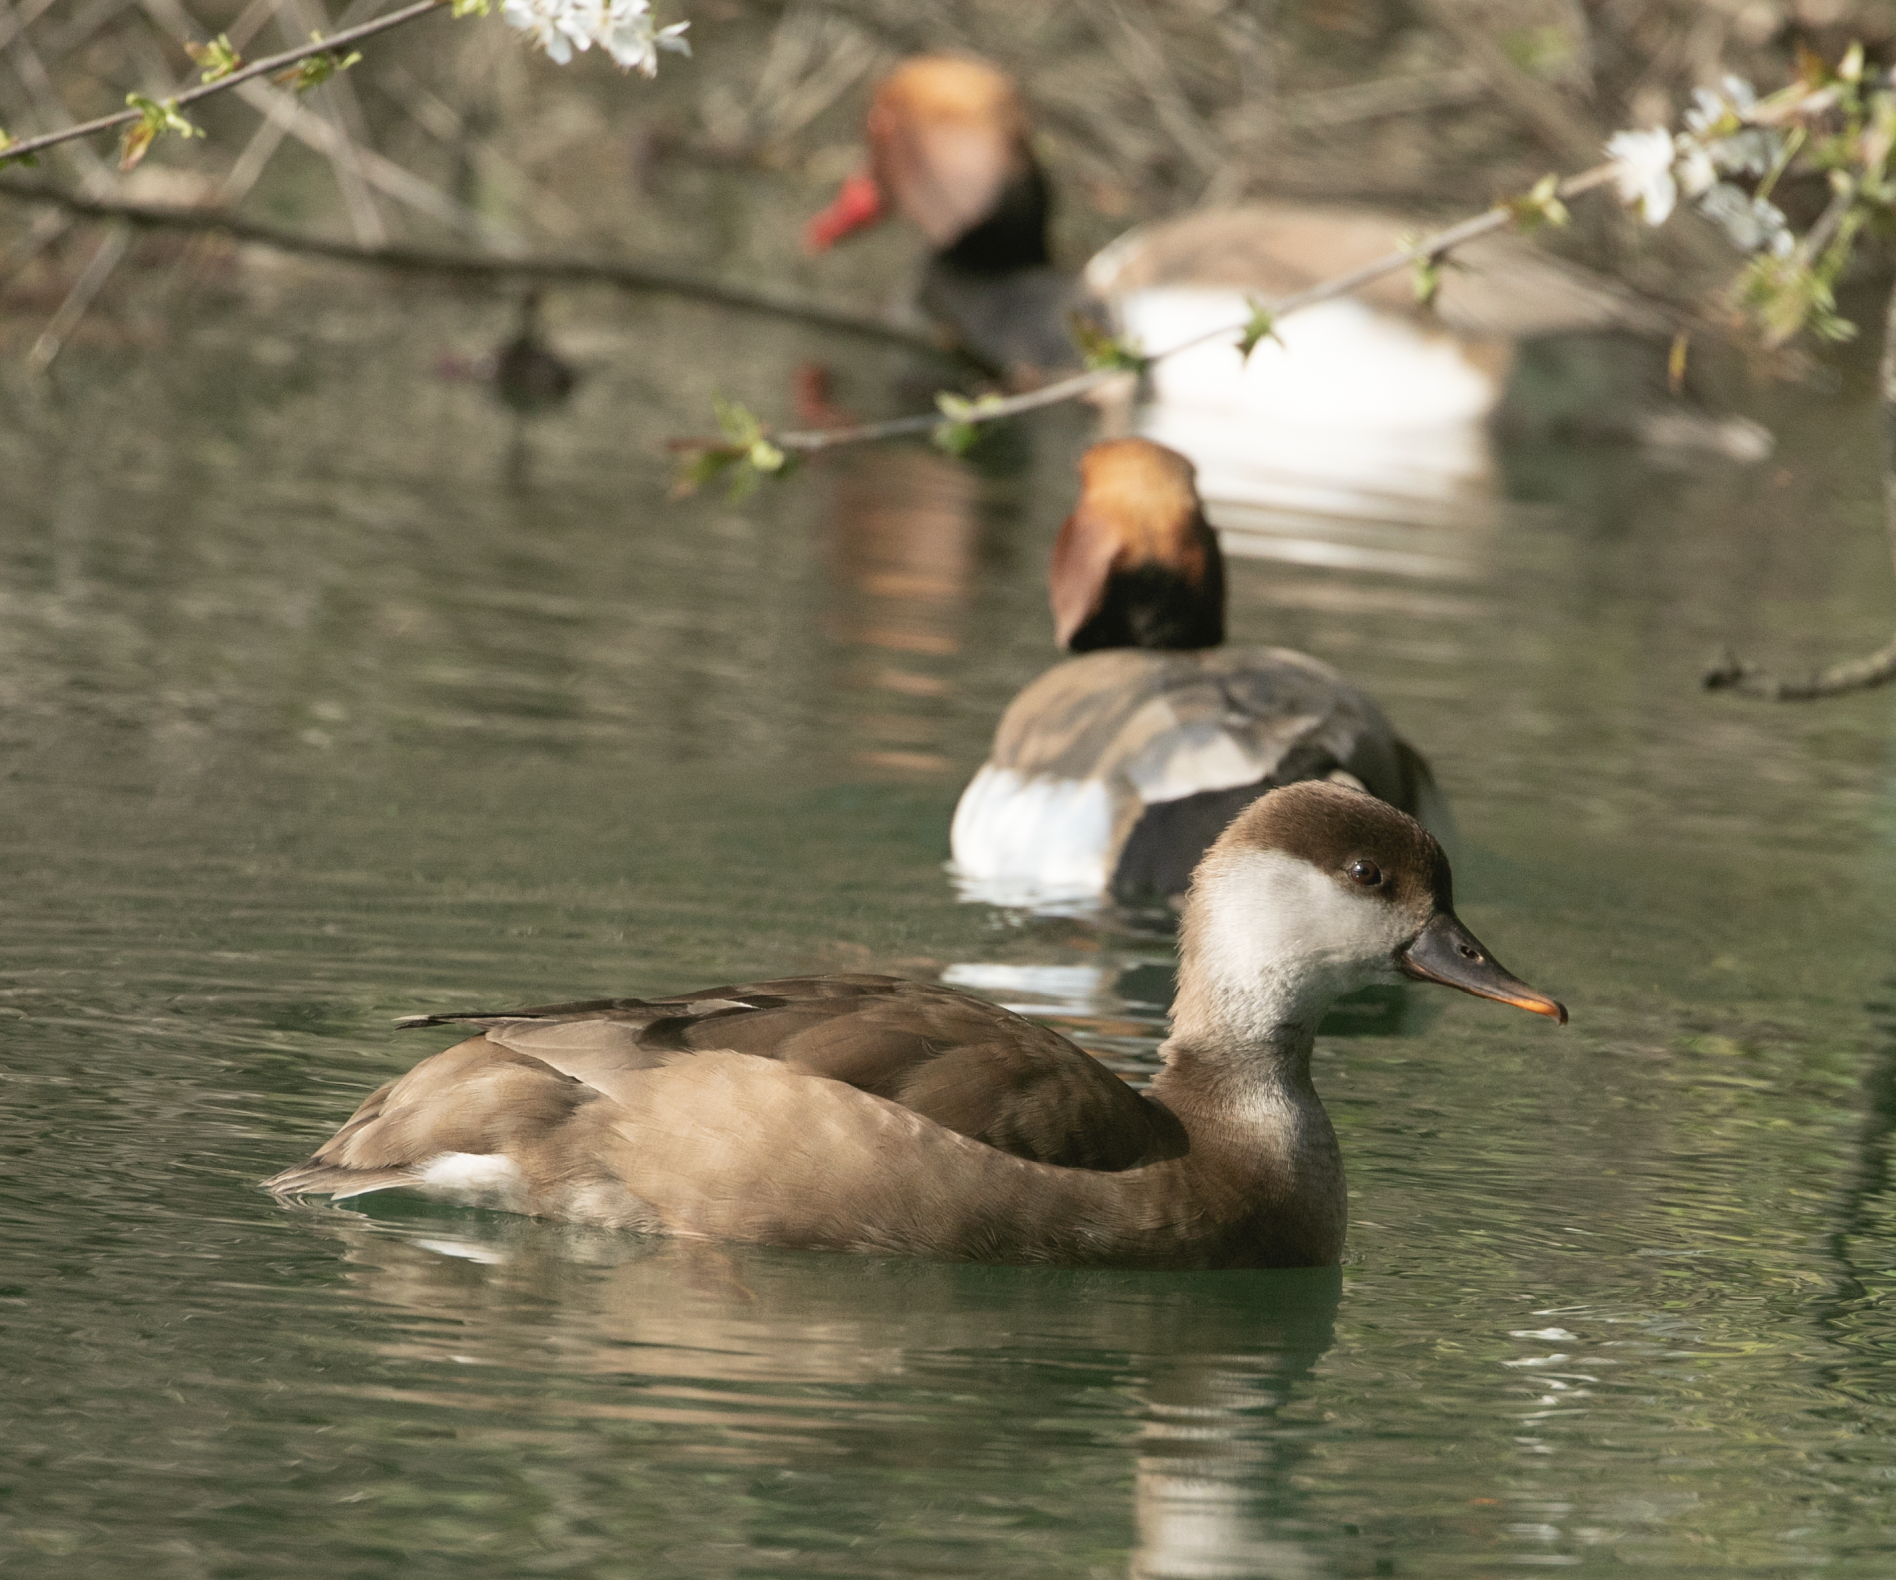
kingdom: Animalia
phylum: Chordata
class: Aves
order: Anseriformes
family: Anatidae
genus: Netta
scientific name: Netta rufina
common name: Red-crested pochard
